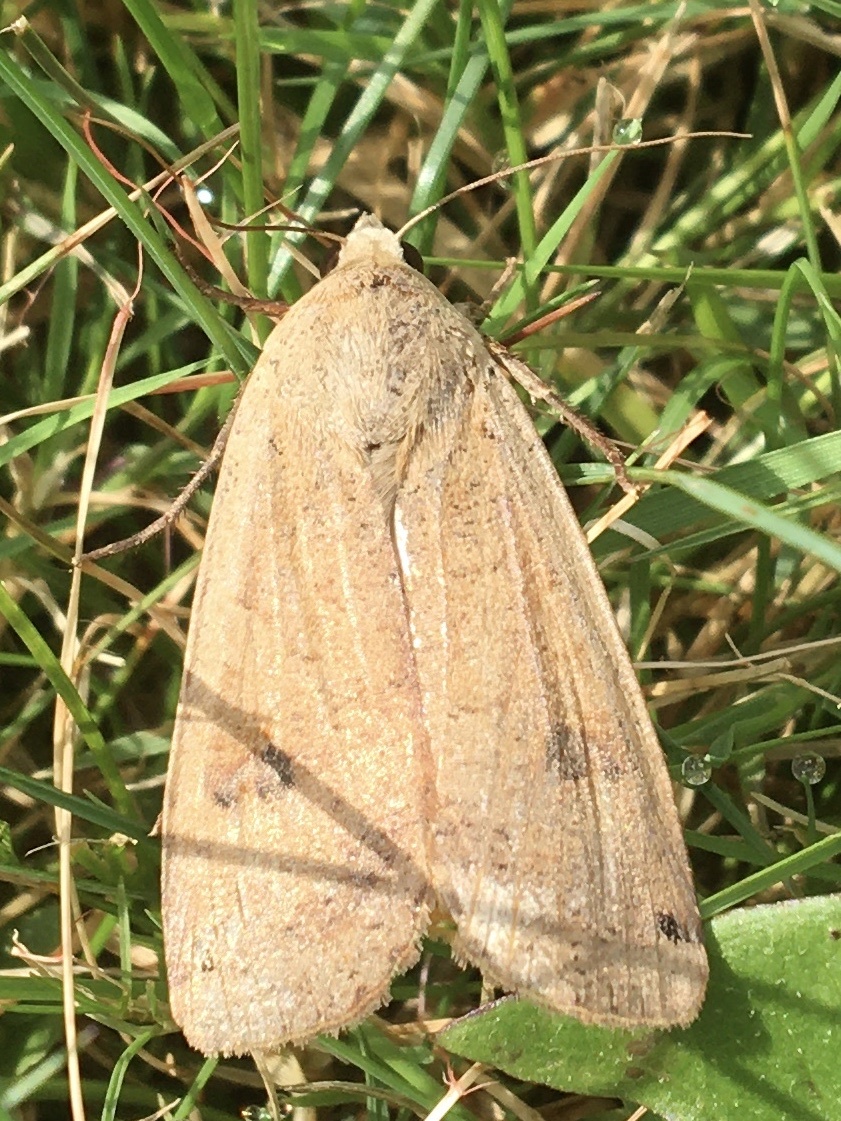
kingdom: Animalia
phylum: Arthropoda
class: Insecta
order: Lepidoptera
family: Noctuidae
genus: Noctua
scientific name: Noctua pronuba
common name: Large yellow underwing
